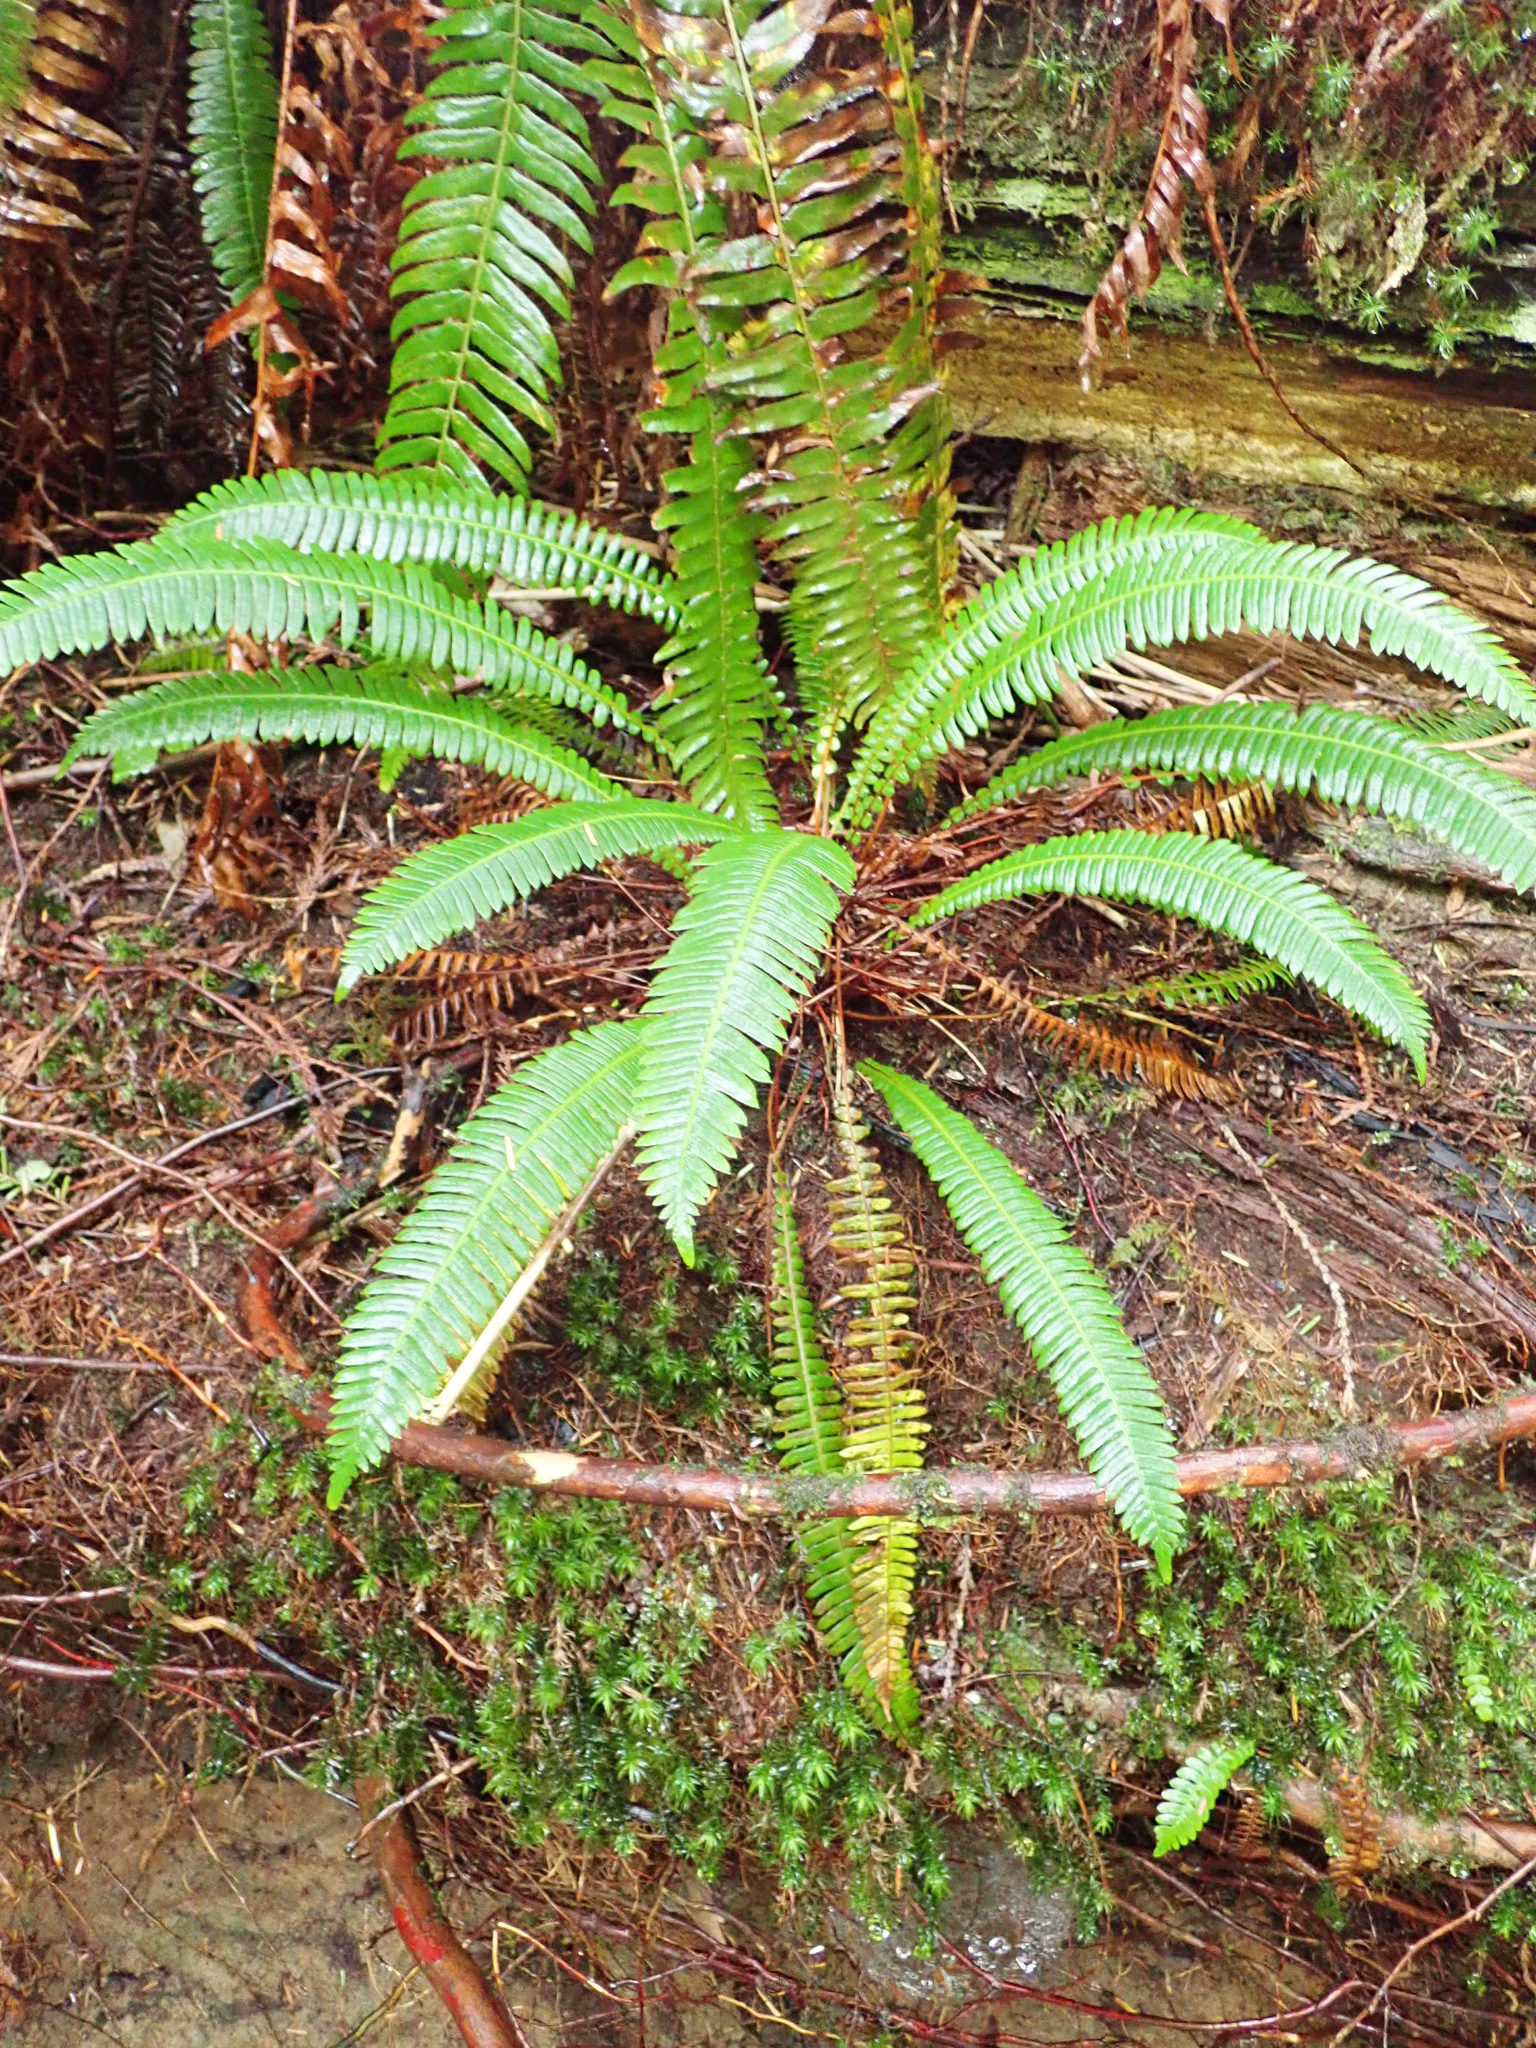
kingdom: Plantae
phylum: Tracheophyta
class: Polypodiopsida
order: Polypodiales
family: Blechnaceae
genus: Struthiopteris
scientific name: Struthiopteris spicant
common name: Deer fern
